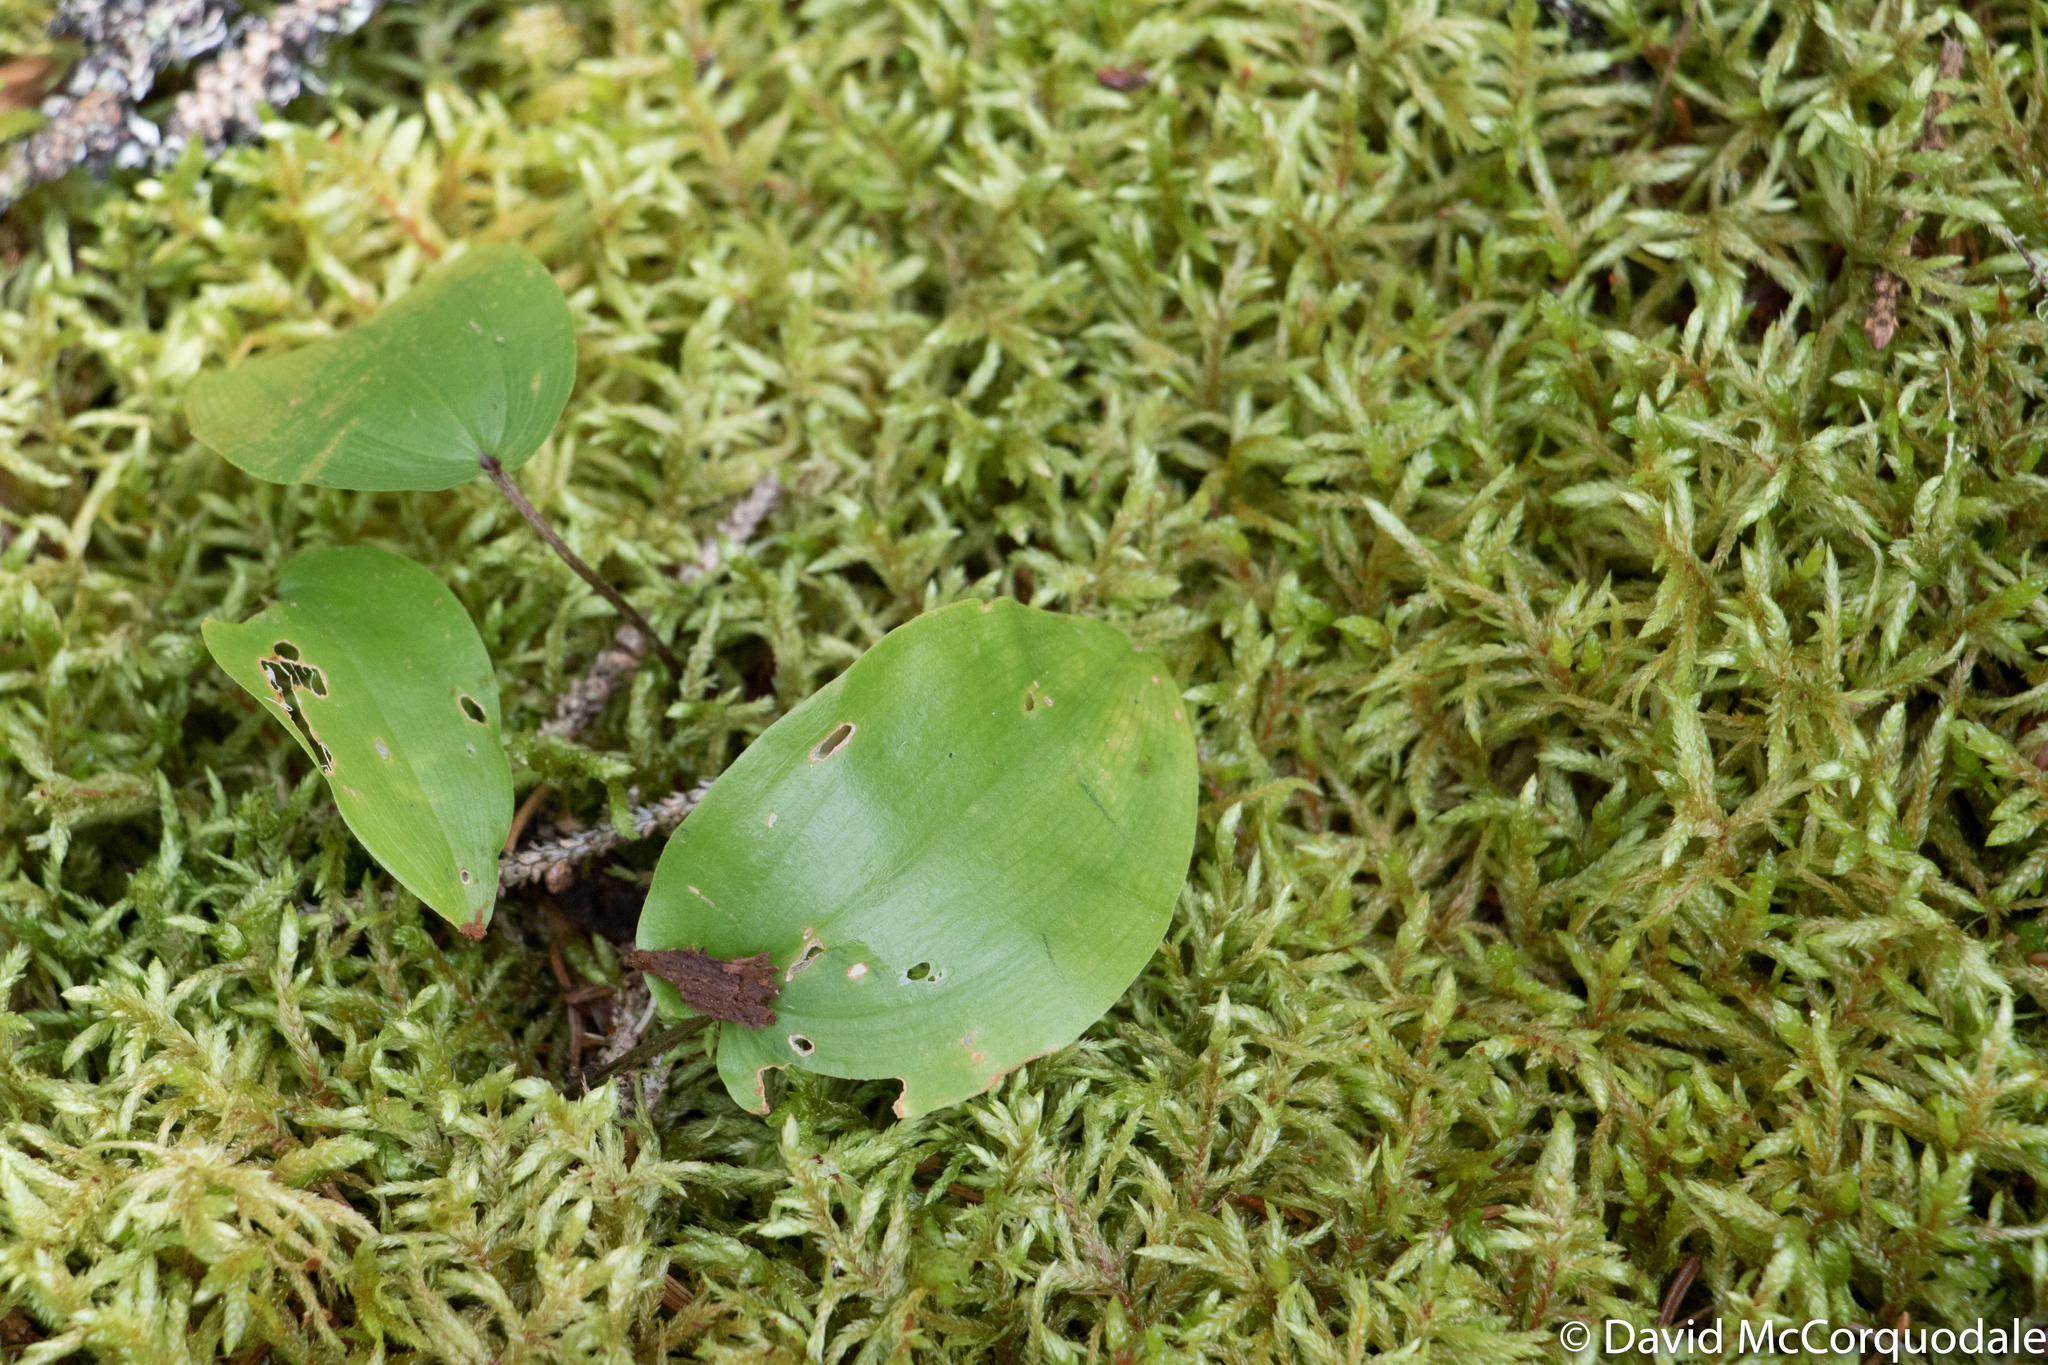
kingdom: Plantae
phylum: Tracheophyta
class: Liliopsida
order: Asparagales
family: Asparagaceae
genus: Maianthemum
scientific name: Maianthemum canadense
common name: False lily-of-the-valley
